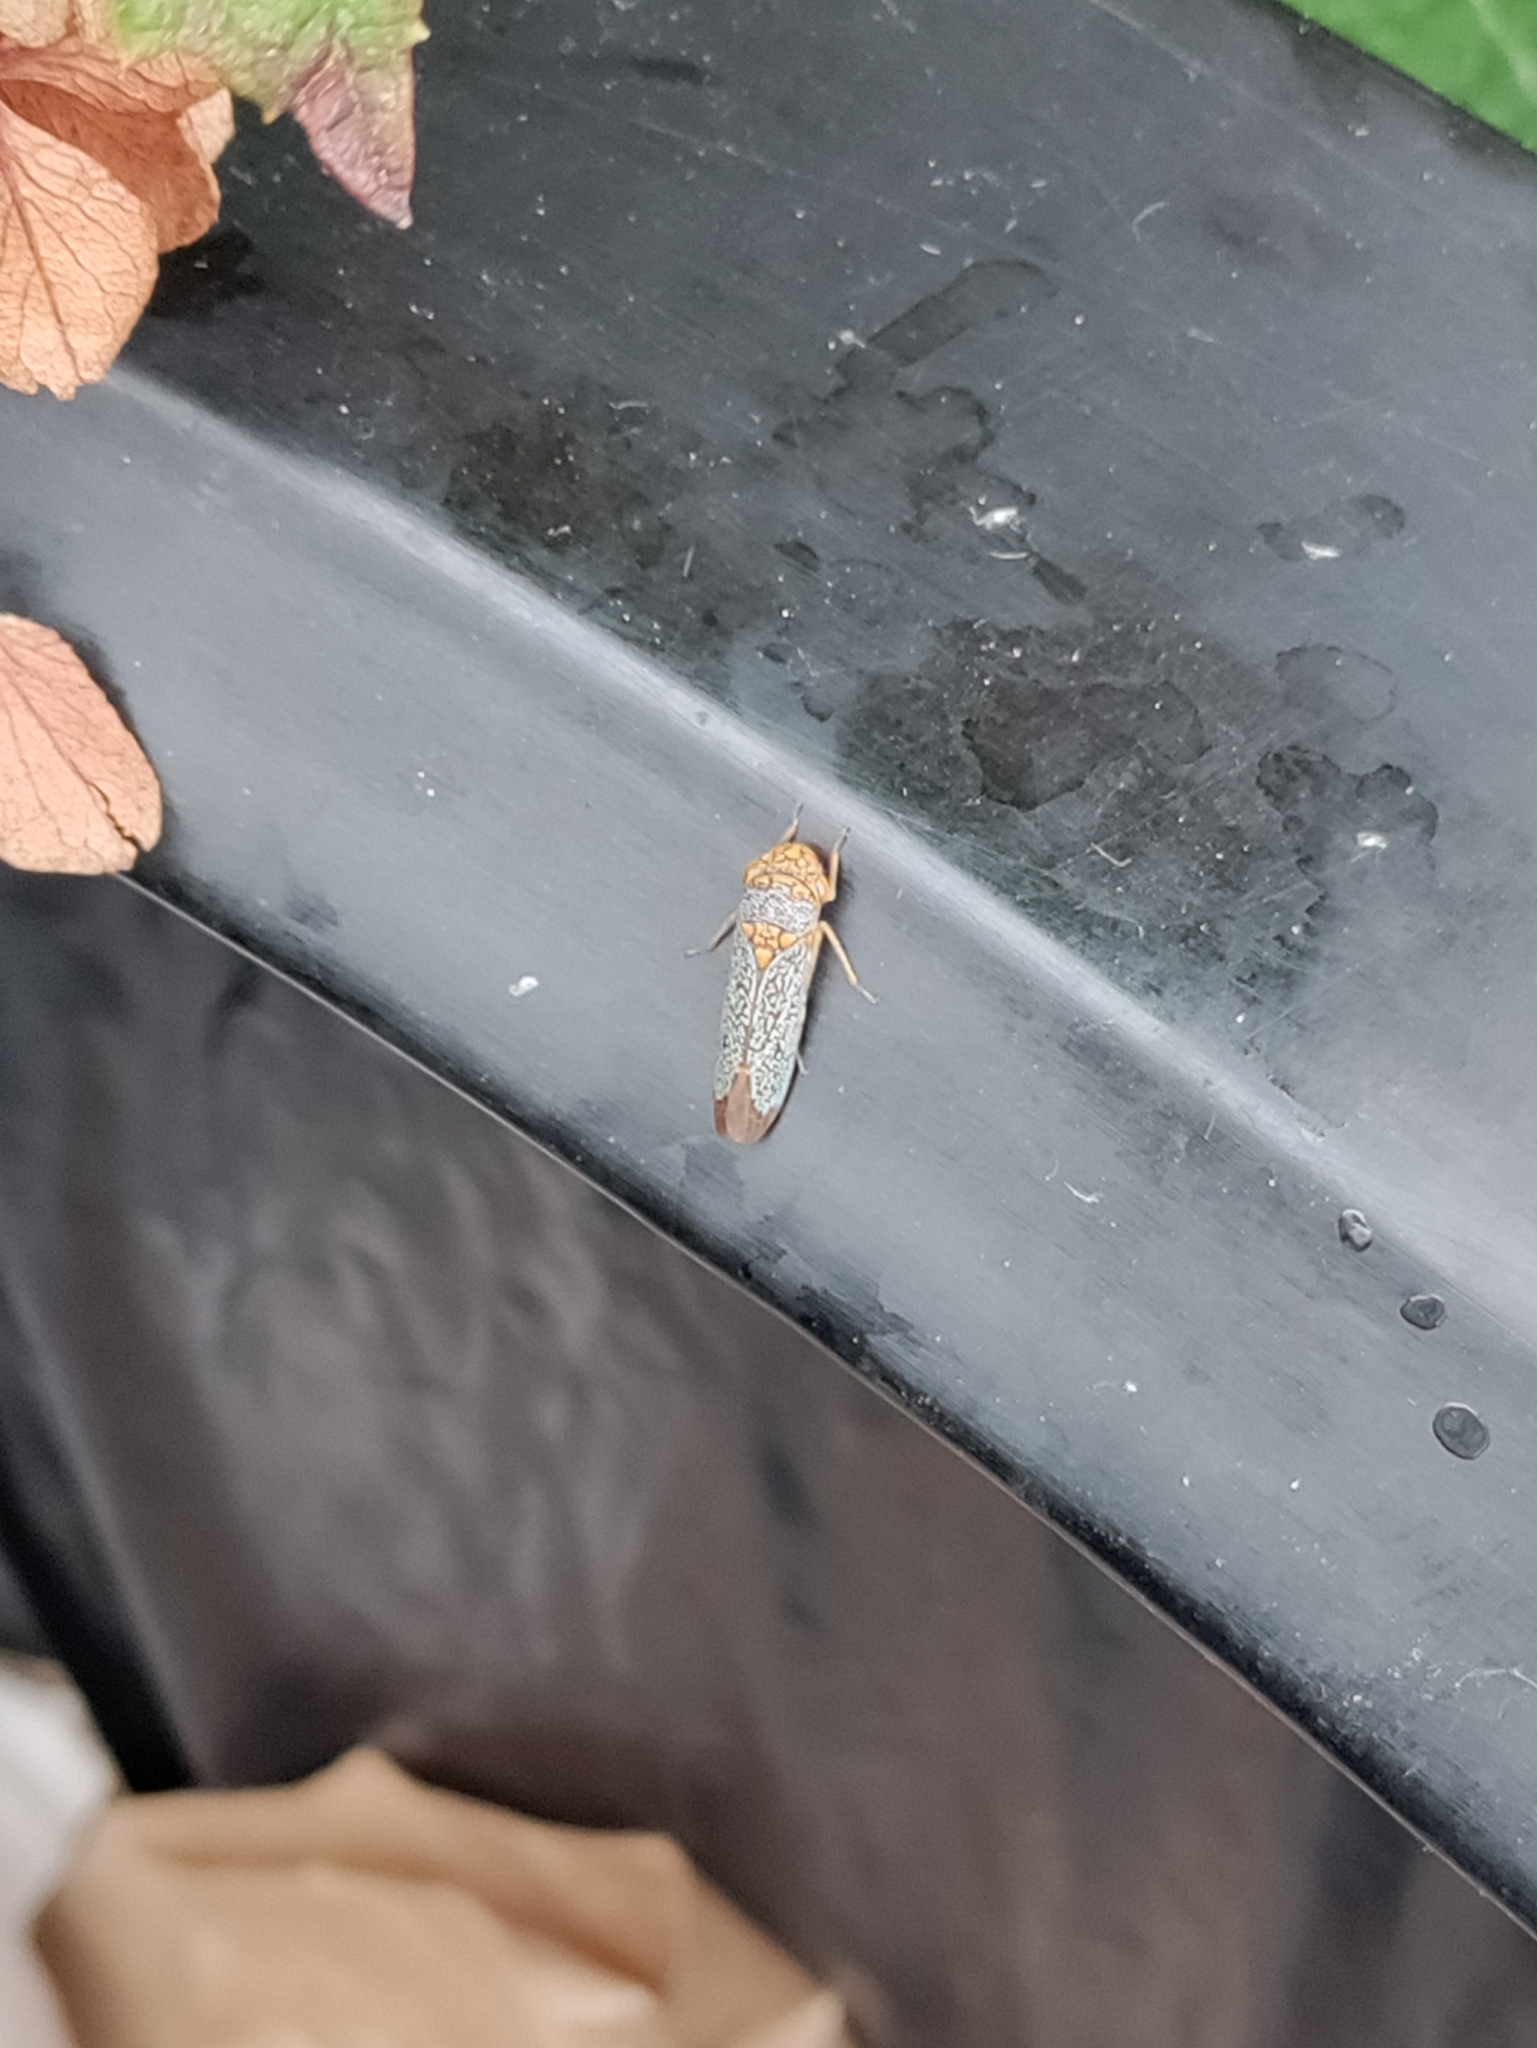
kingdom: Animalia
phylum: Arthropoda
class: Insecta
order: Hemiptera
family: Cicadellidae
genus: Oncometopia
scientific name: Oncometopia orbona
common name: Broad-headed sharpshooter
